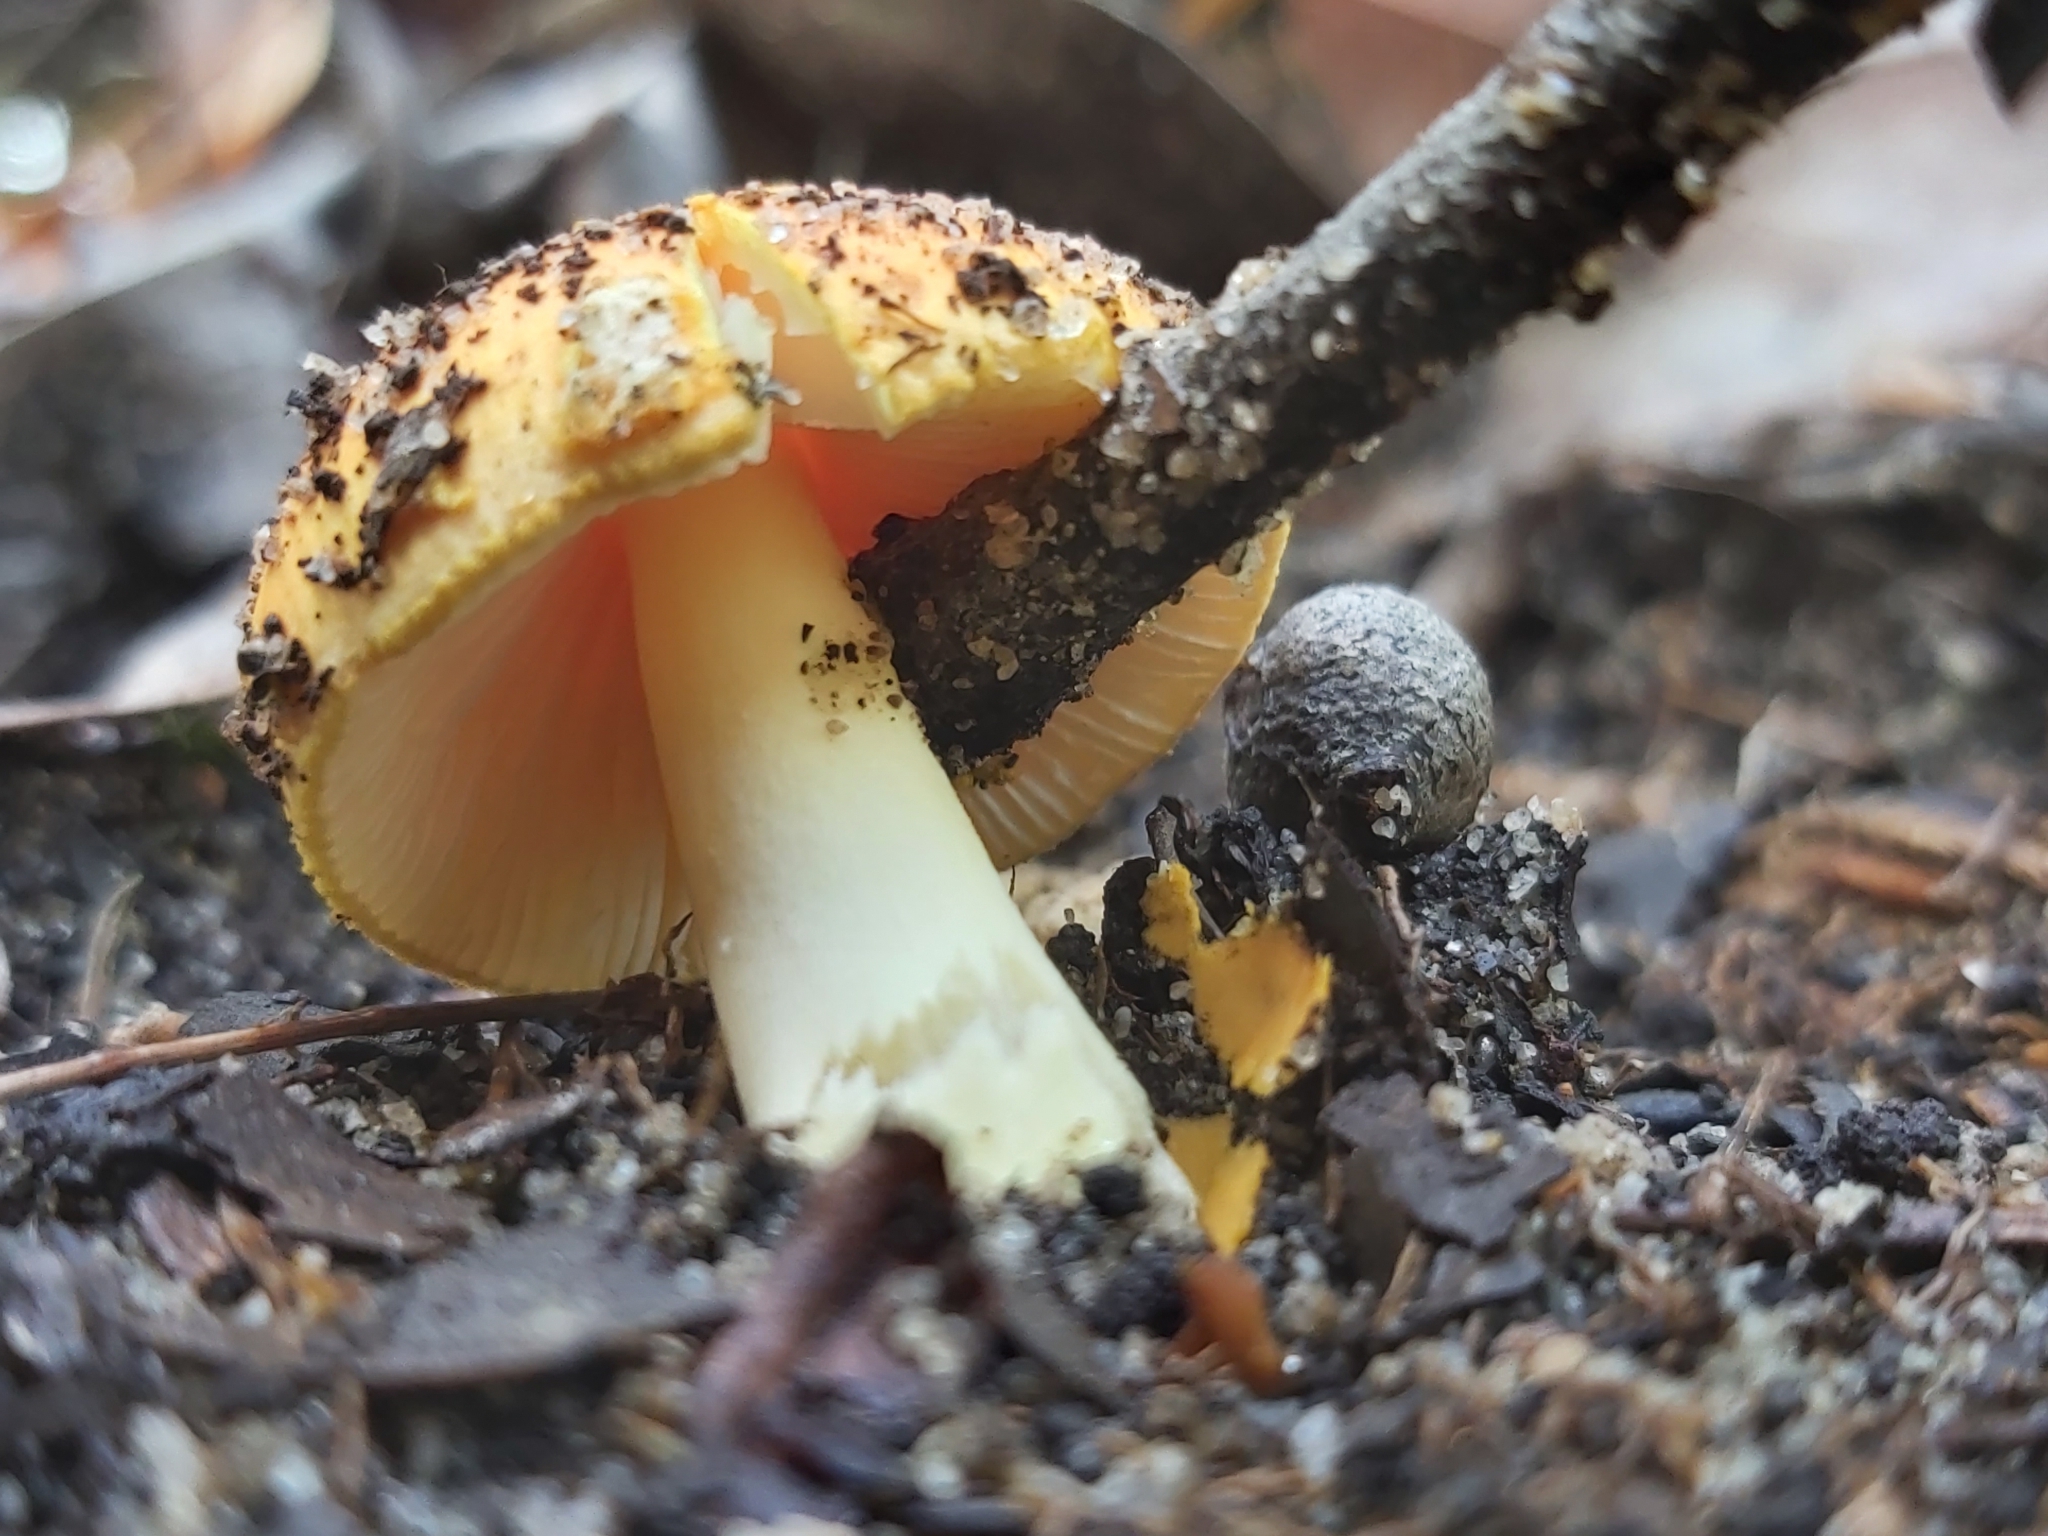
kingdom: Fungi
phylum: Basidiomycota
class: Agaricomycetes
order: Agaricales
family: Amanitaceae
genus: Amanita
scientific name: Amanita xanthocephala
